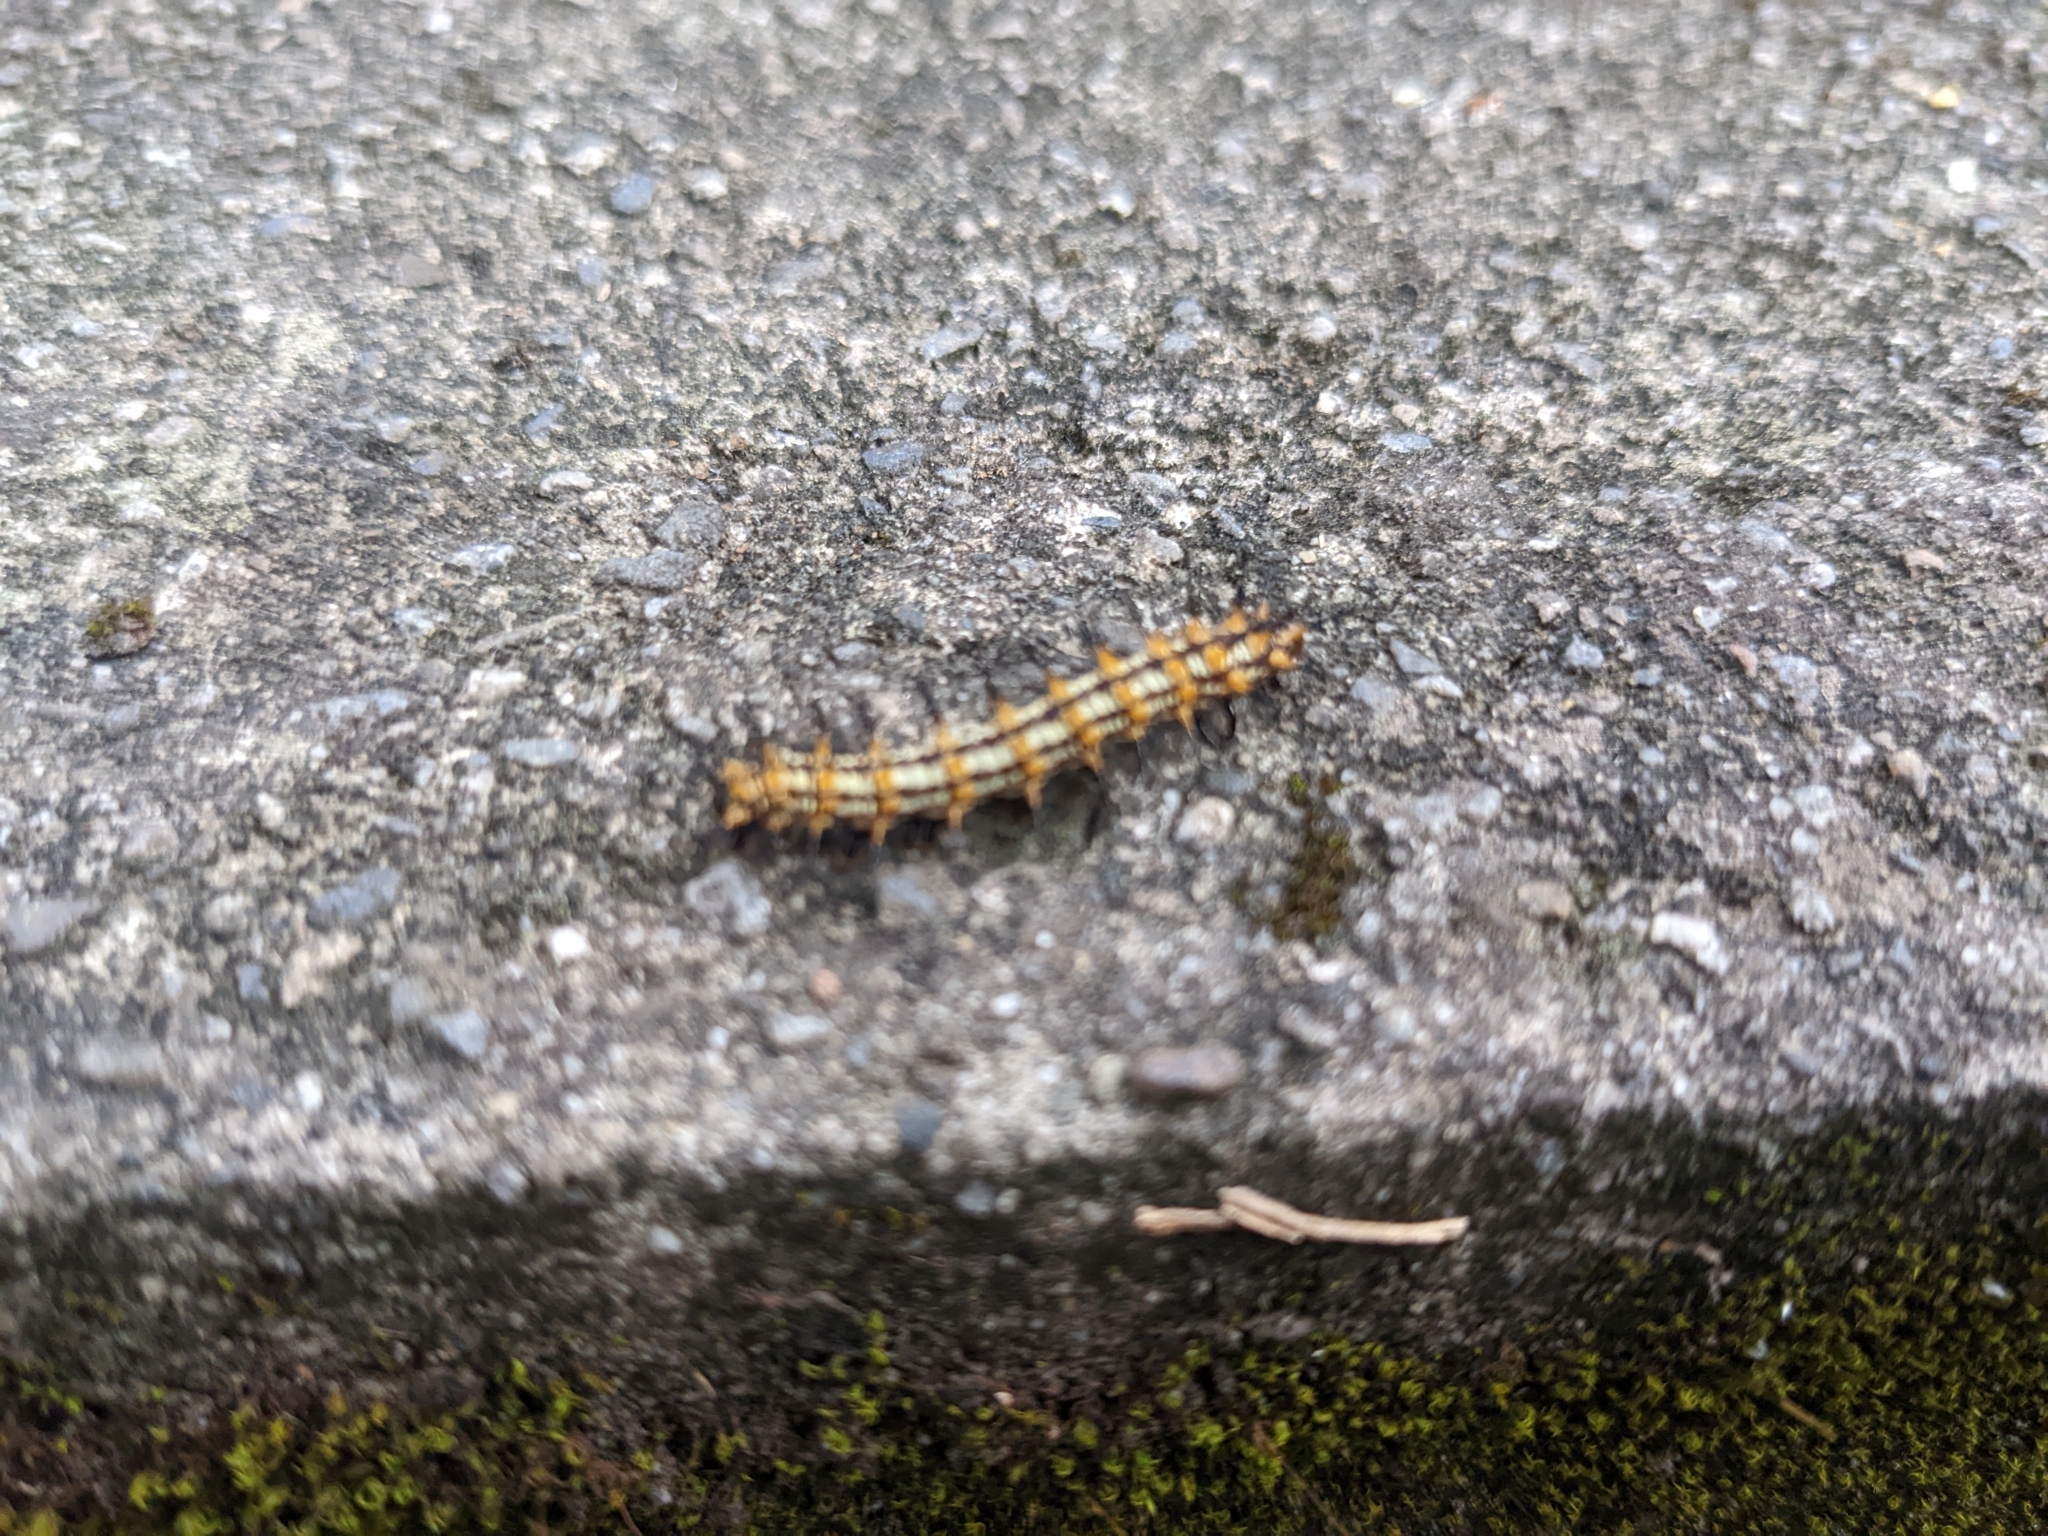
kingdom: Animalia
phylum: Arthropoda
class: Insecta
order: Lepidoptera
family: Nymphalidae
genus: Acraea
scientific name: Acraea Telchinia issoria
